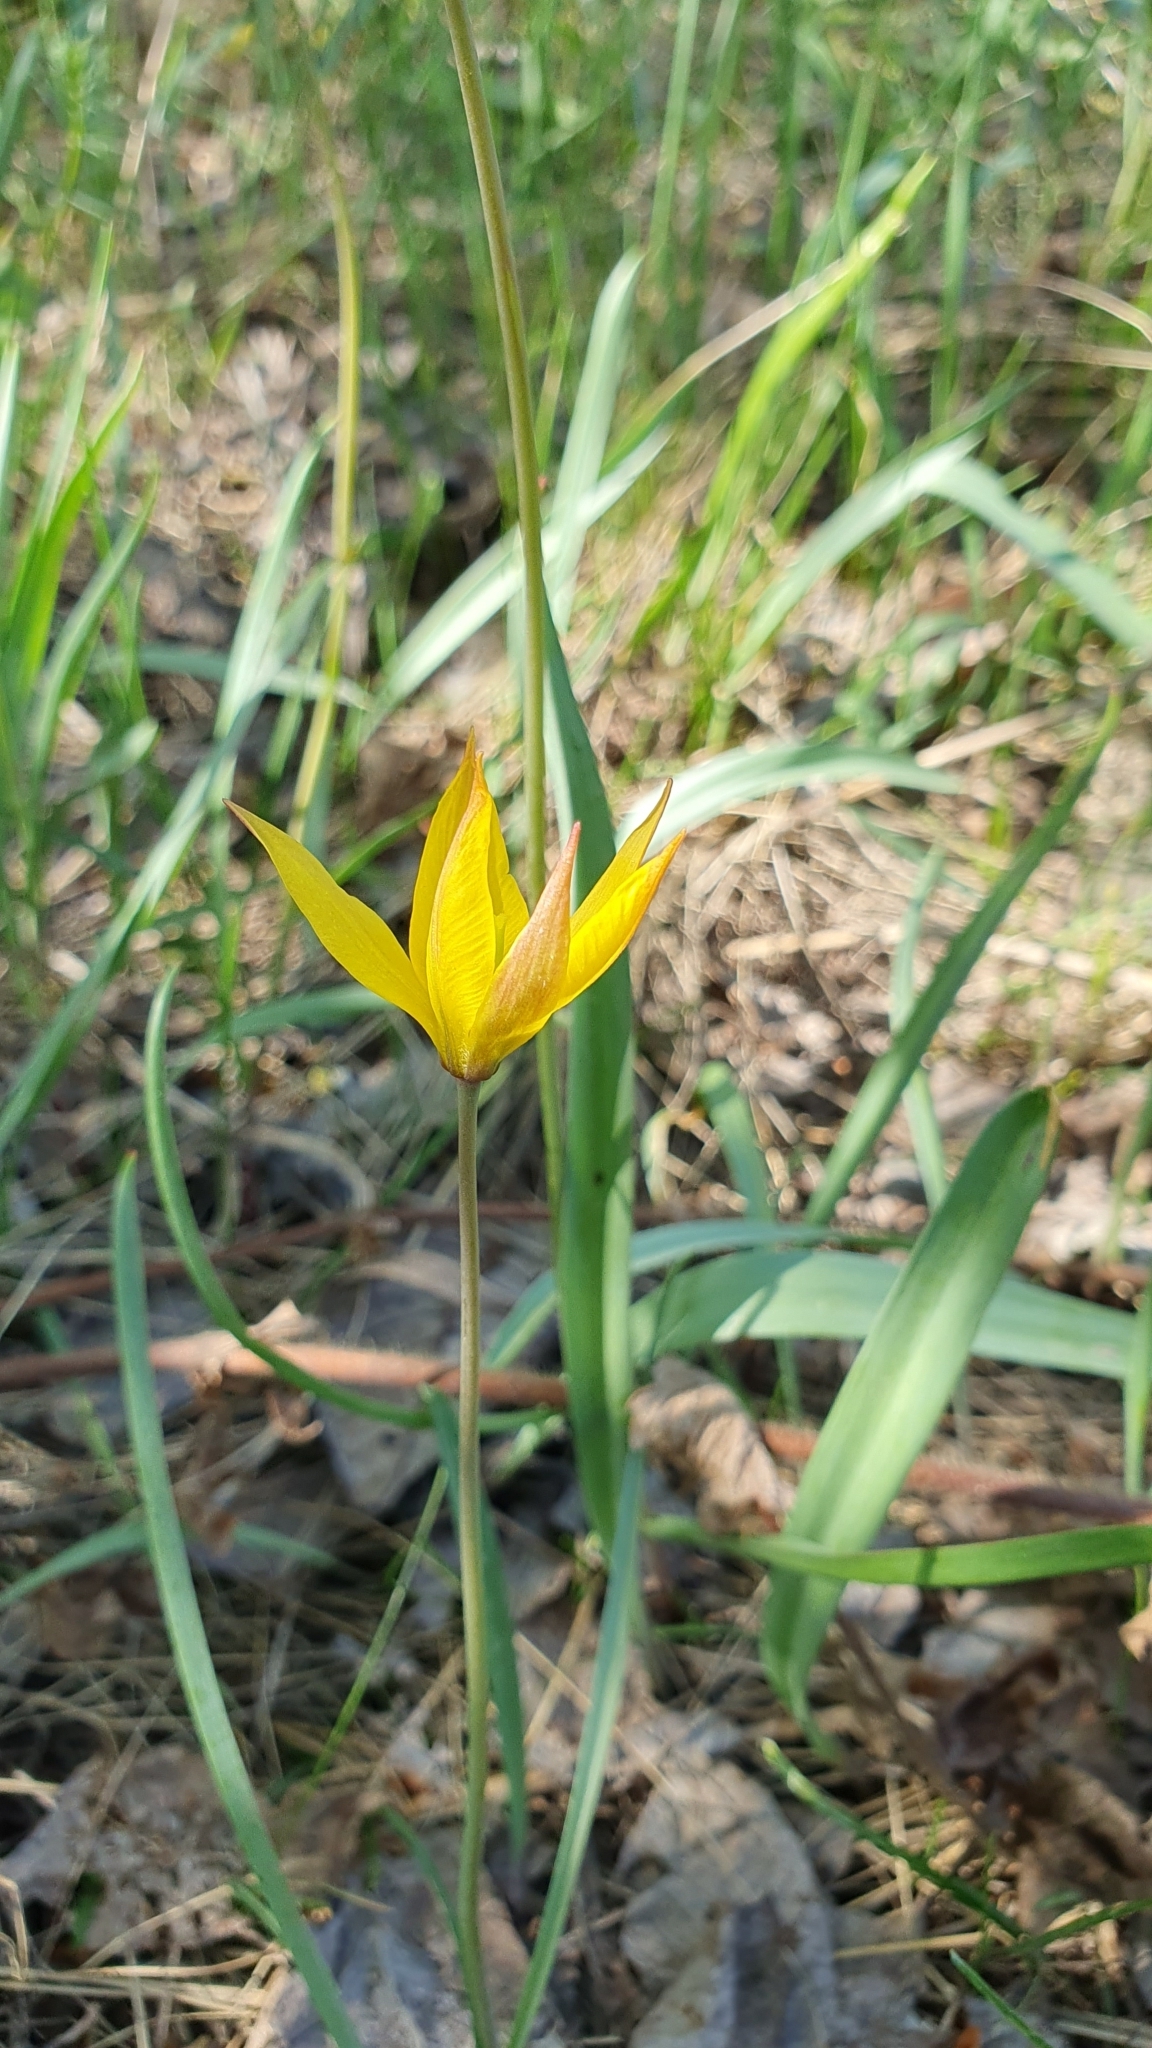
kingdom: Plantae
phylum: Tracheophyta
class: Liliopsida
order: Liliales
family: Liliaceae
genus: Tulipa
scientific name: Tulipa sylvestris
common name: Wild tulip
